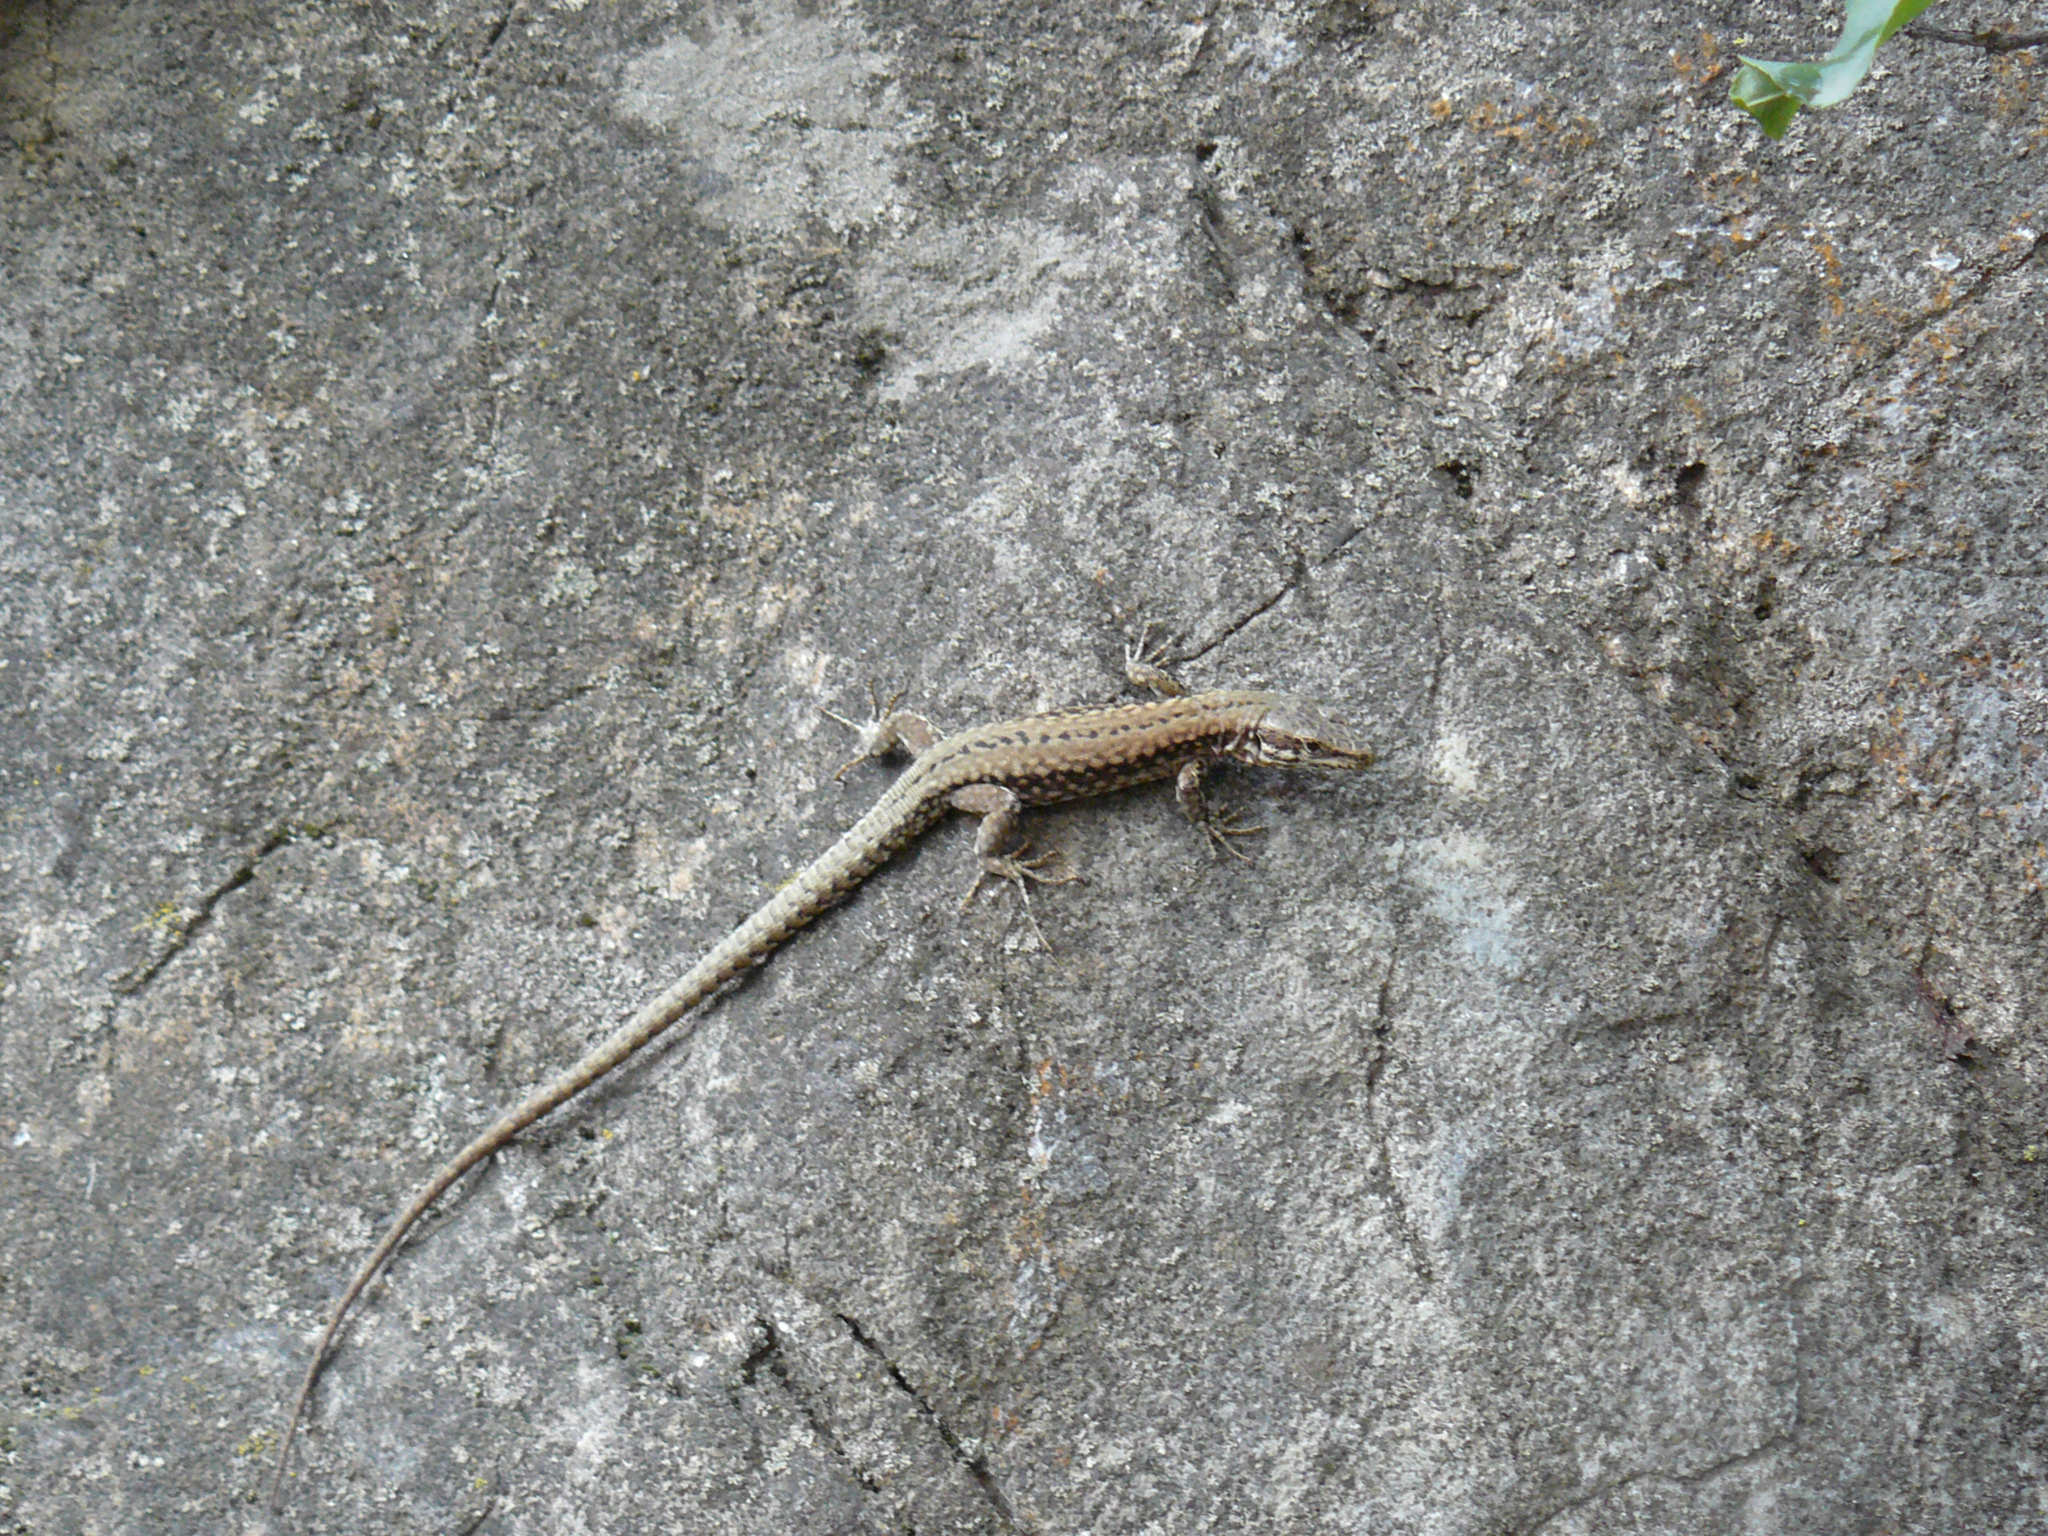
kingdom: Animalia
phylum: Chordata
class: Squamata
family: Lacertidae
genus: Podarcis
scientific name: Podarcis muralis
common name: Common wall lizard
